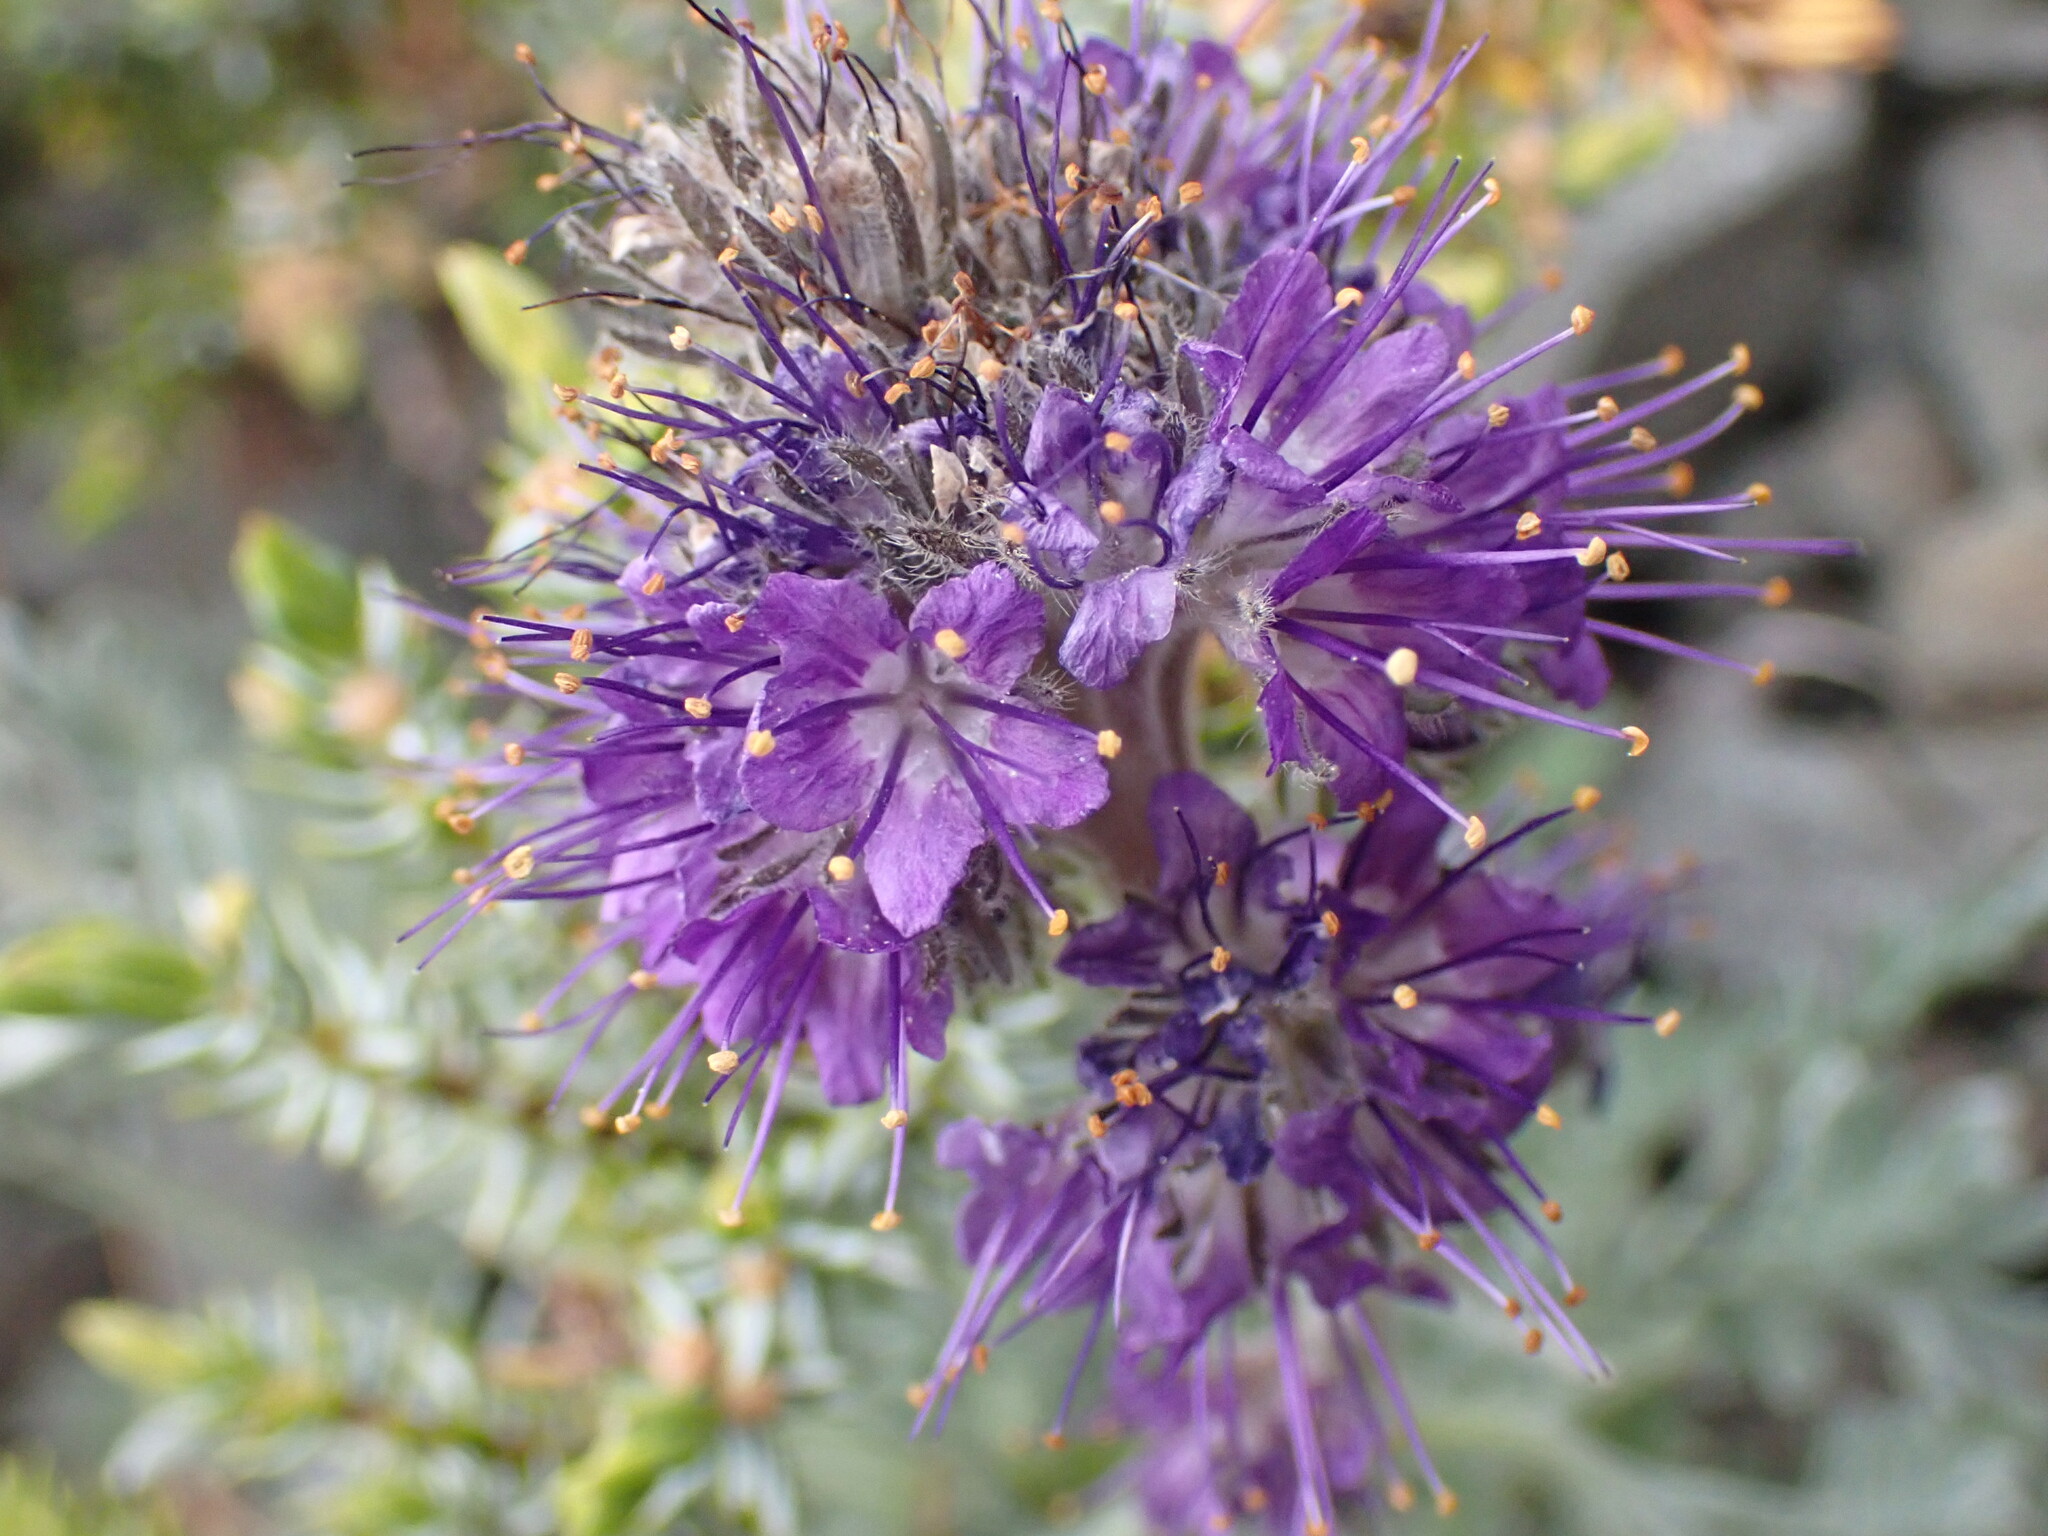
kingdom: Plantae
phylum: Tracheophyta
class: Magnoliopsida
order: Boraginales
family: Hydrophyllaceae
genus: Phacelia
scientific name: Phacelia sericea
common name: Silky phacelia
